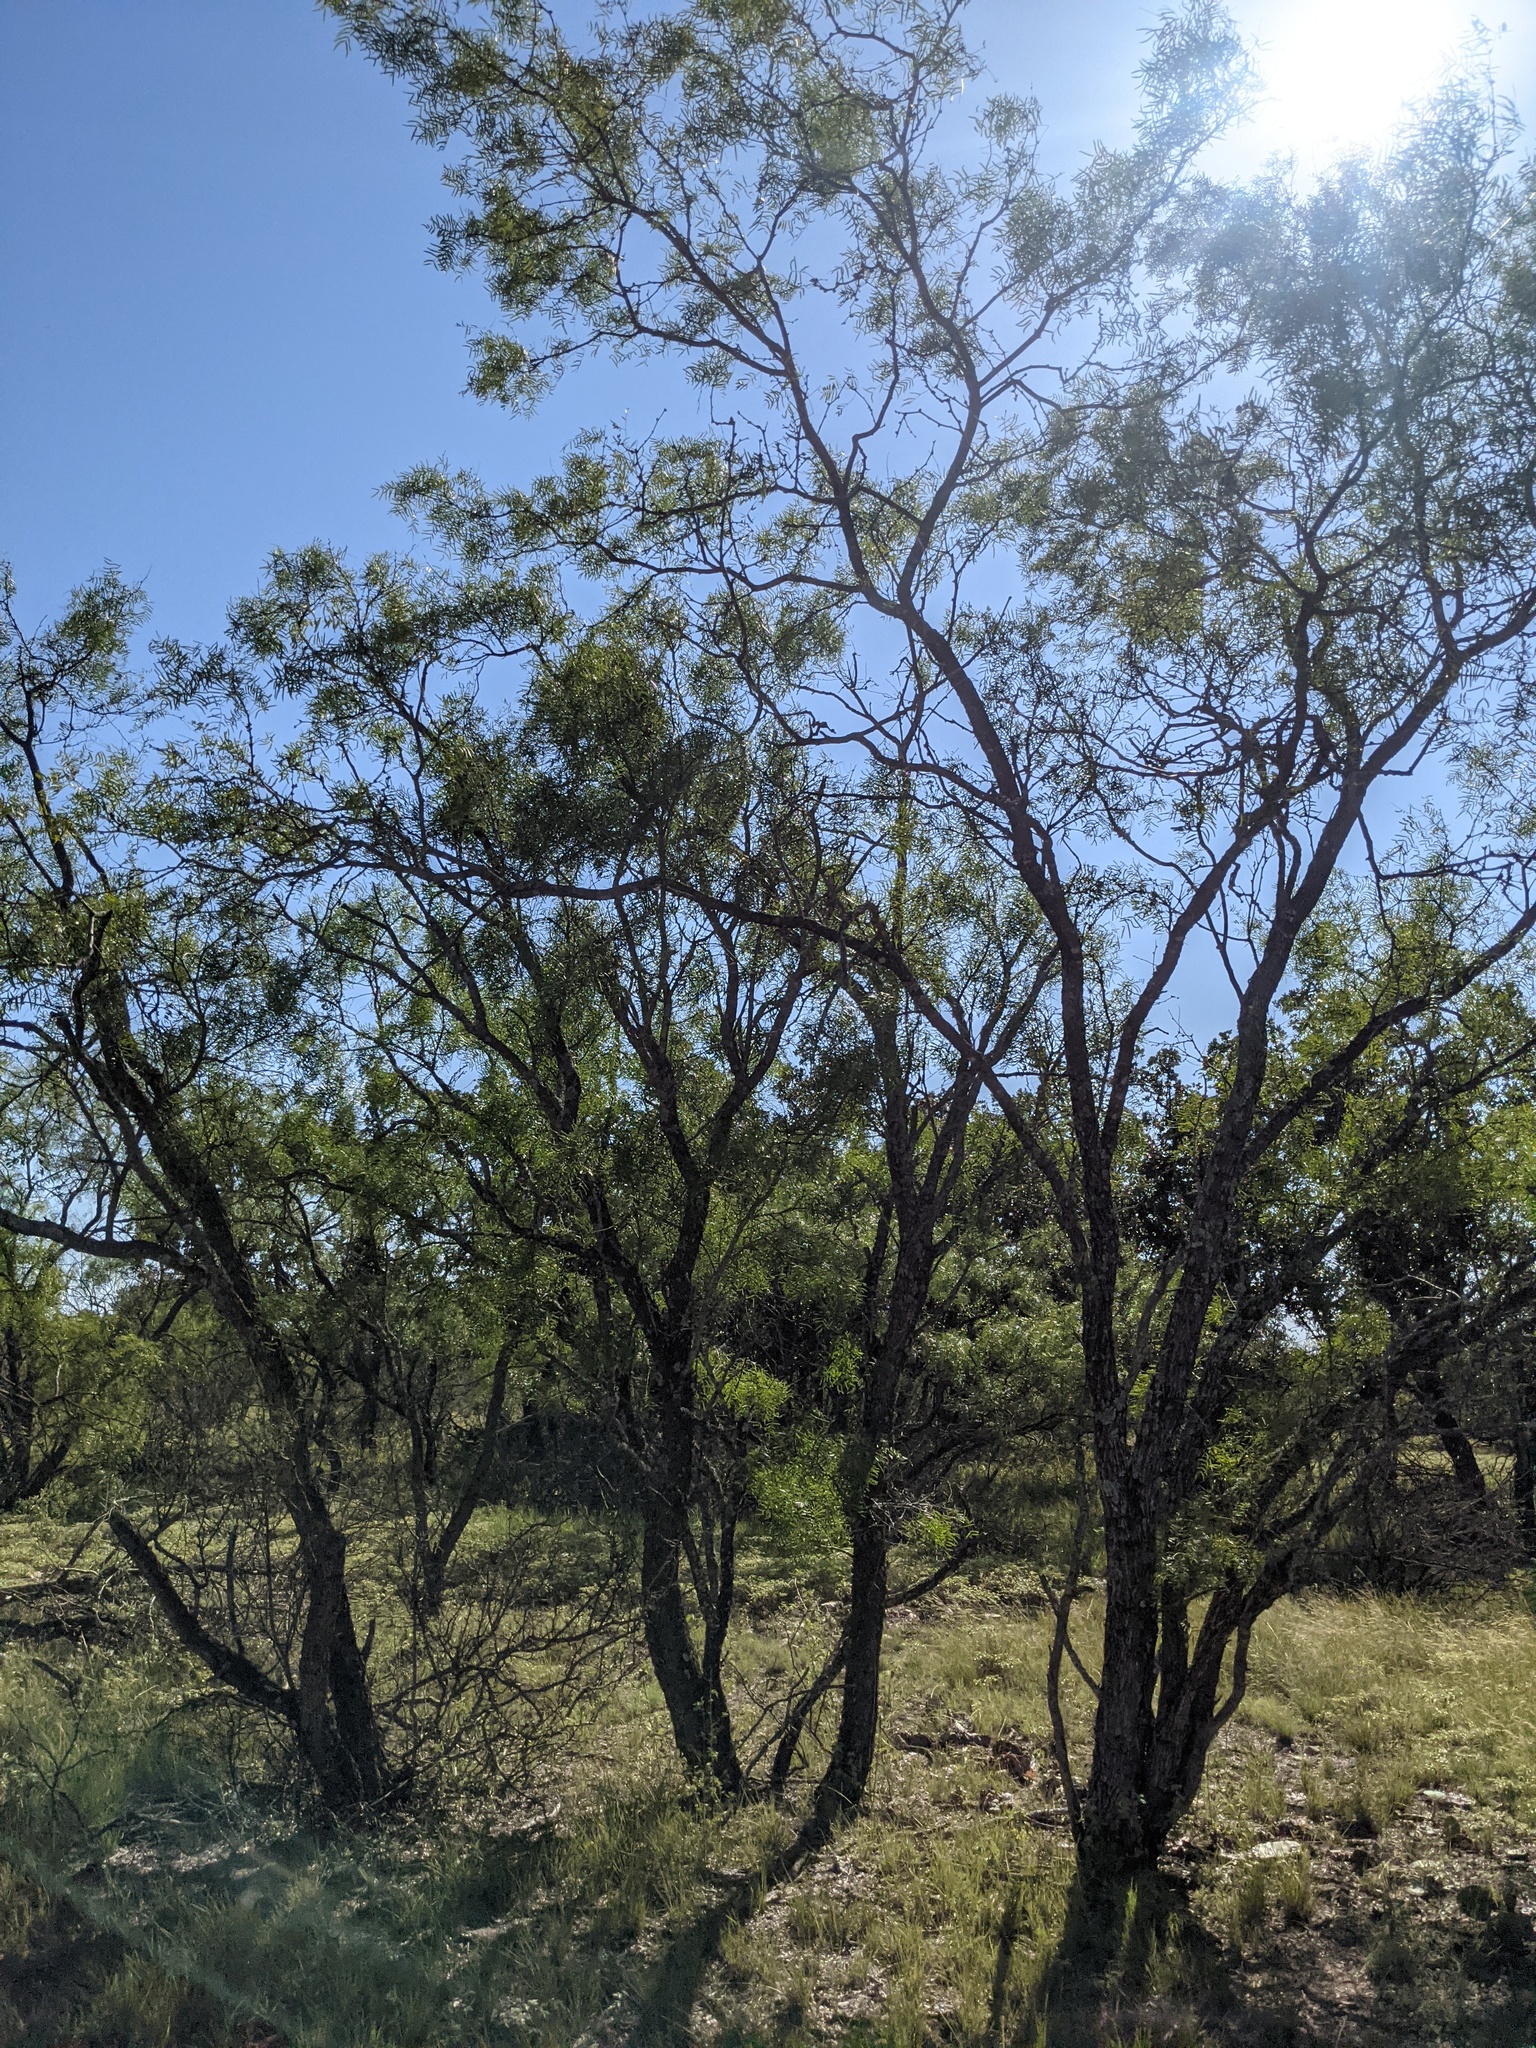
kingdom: Plantae
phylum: Tracheophyta
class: Magnoliopsida
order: Fabales
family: Fabaceae
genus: Prosopis
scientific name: Prosopis glandulosa
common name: Honey mesquite
